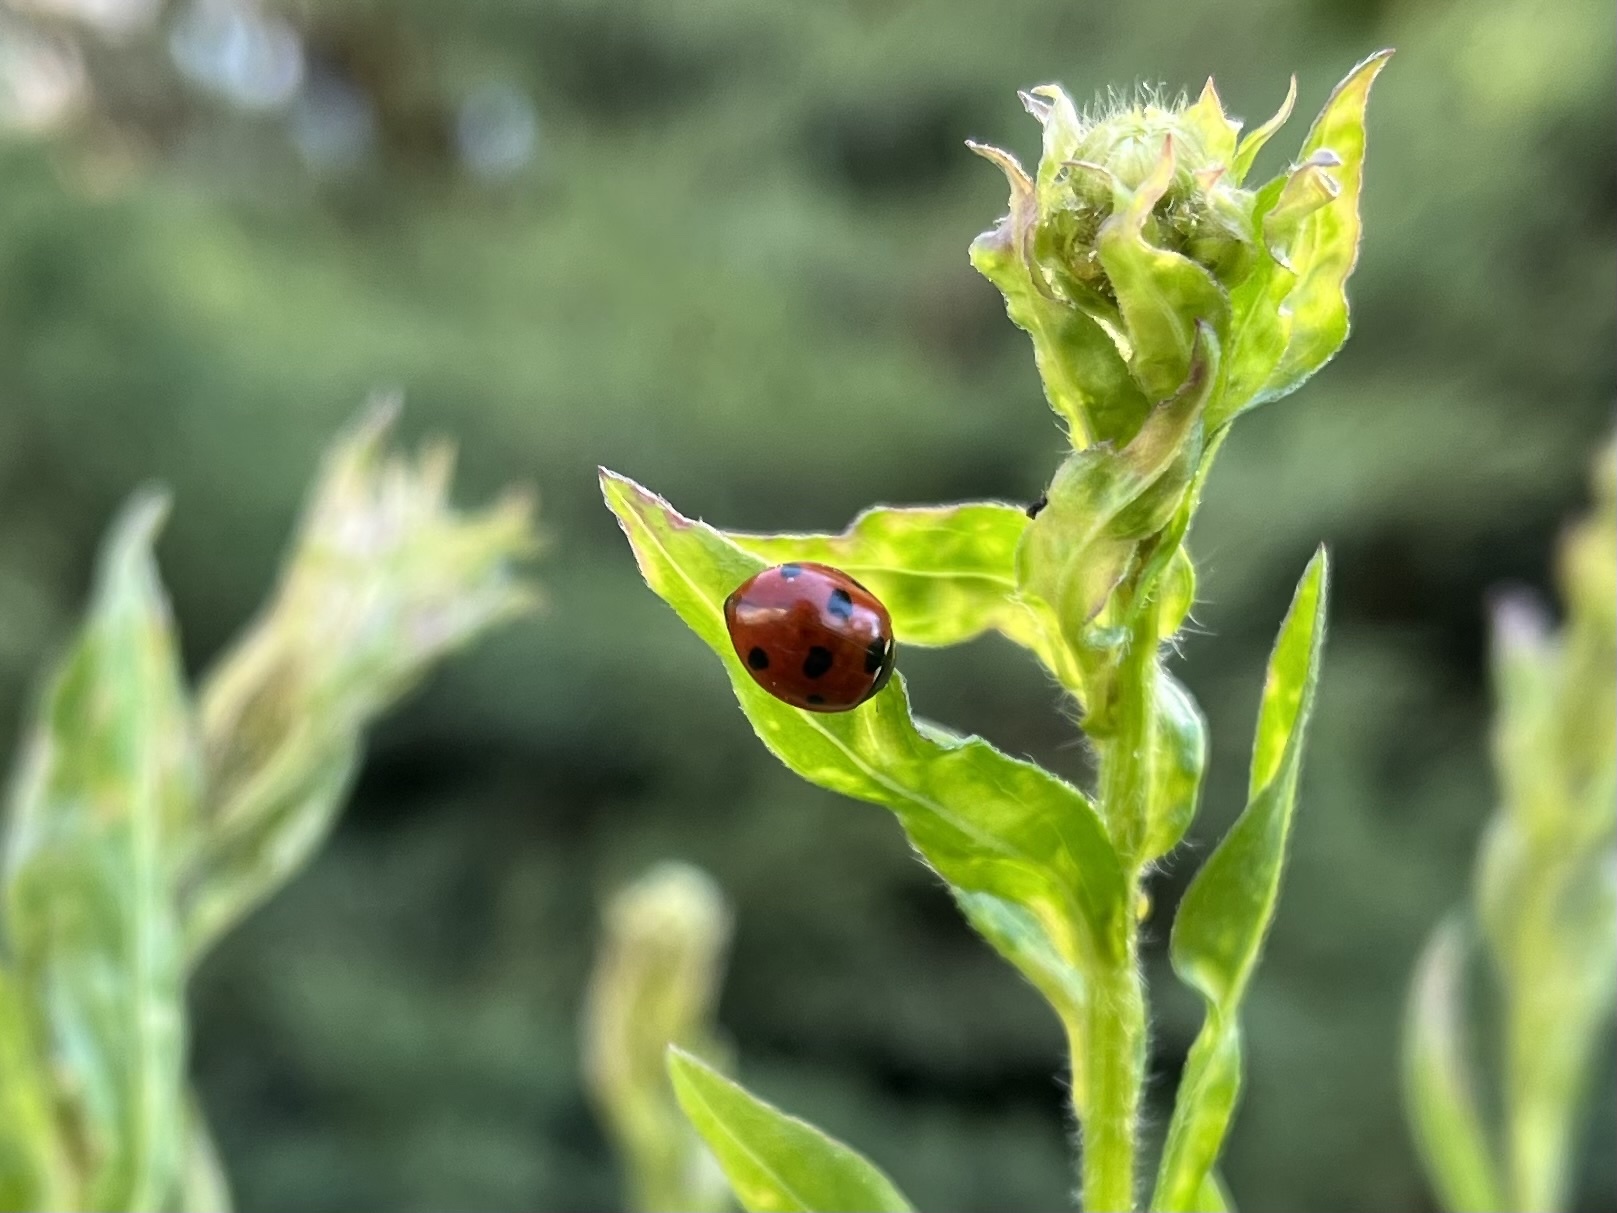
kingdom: Animalia
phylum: Arthropoda
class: Insecta
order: Coleoptera
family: Coccinellidae
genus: Coccinella
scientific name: Coccinella septempunctata
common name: Sevenspotted lady beetle
